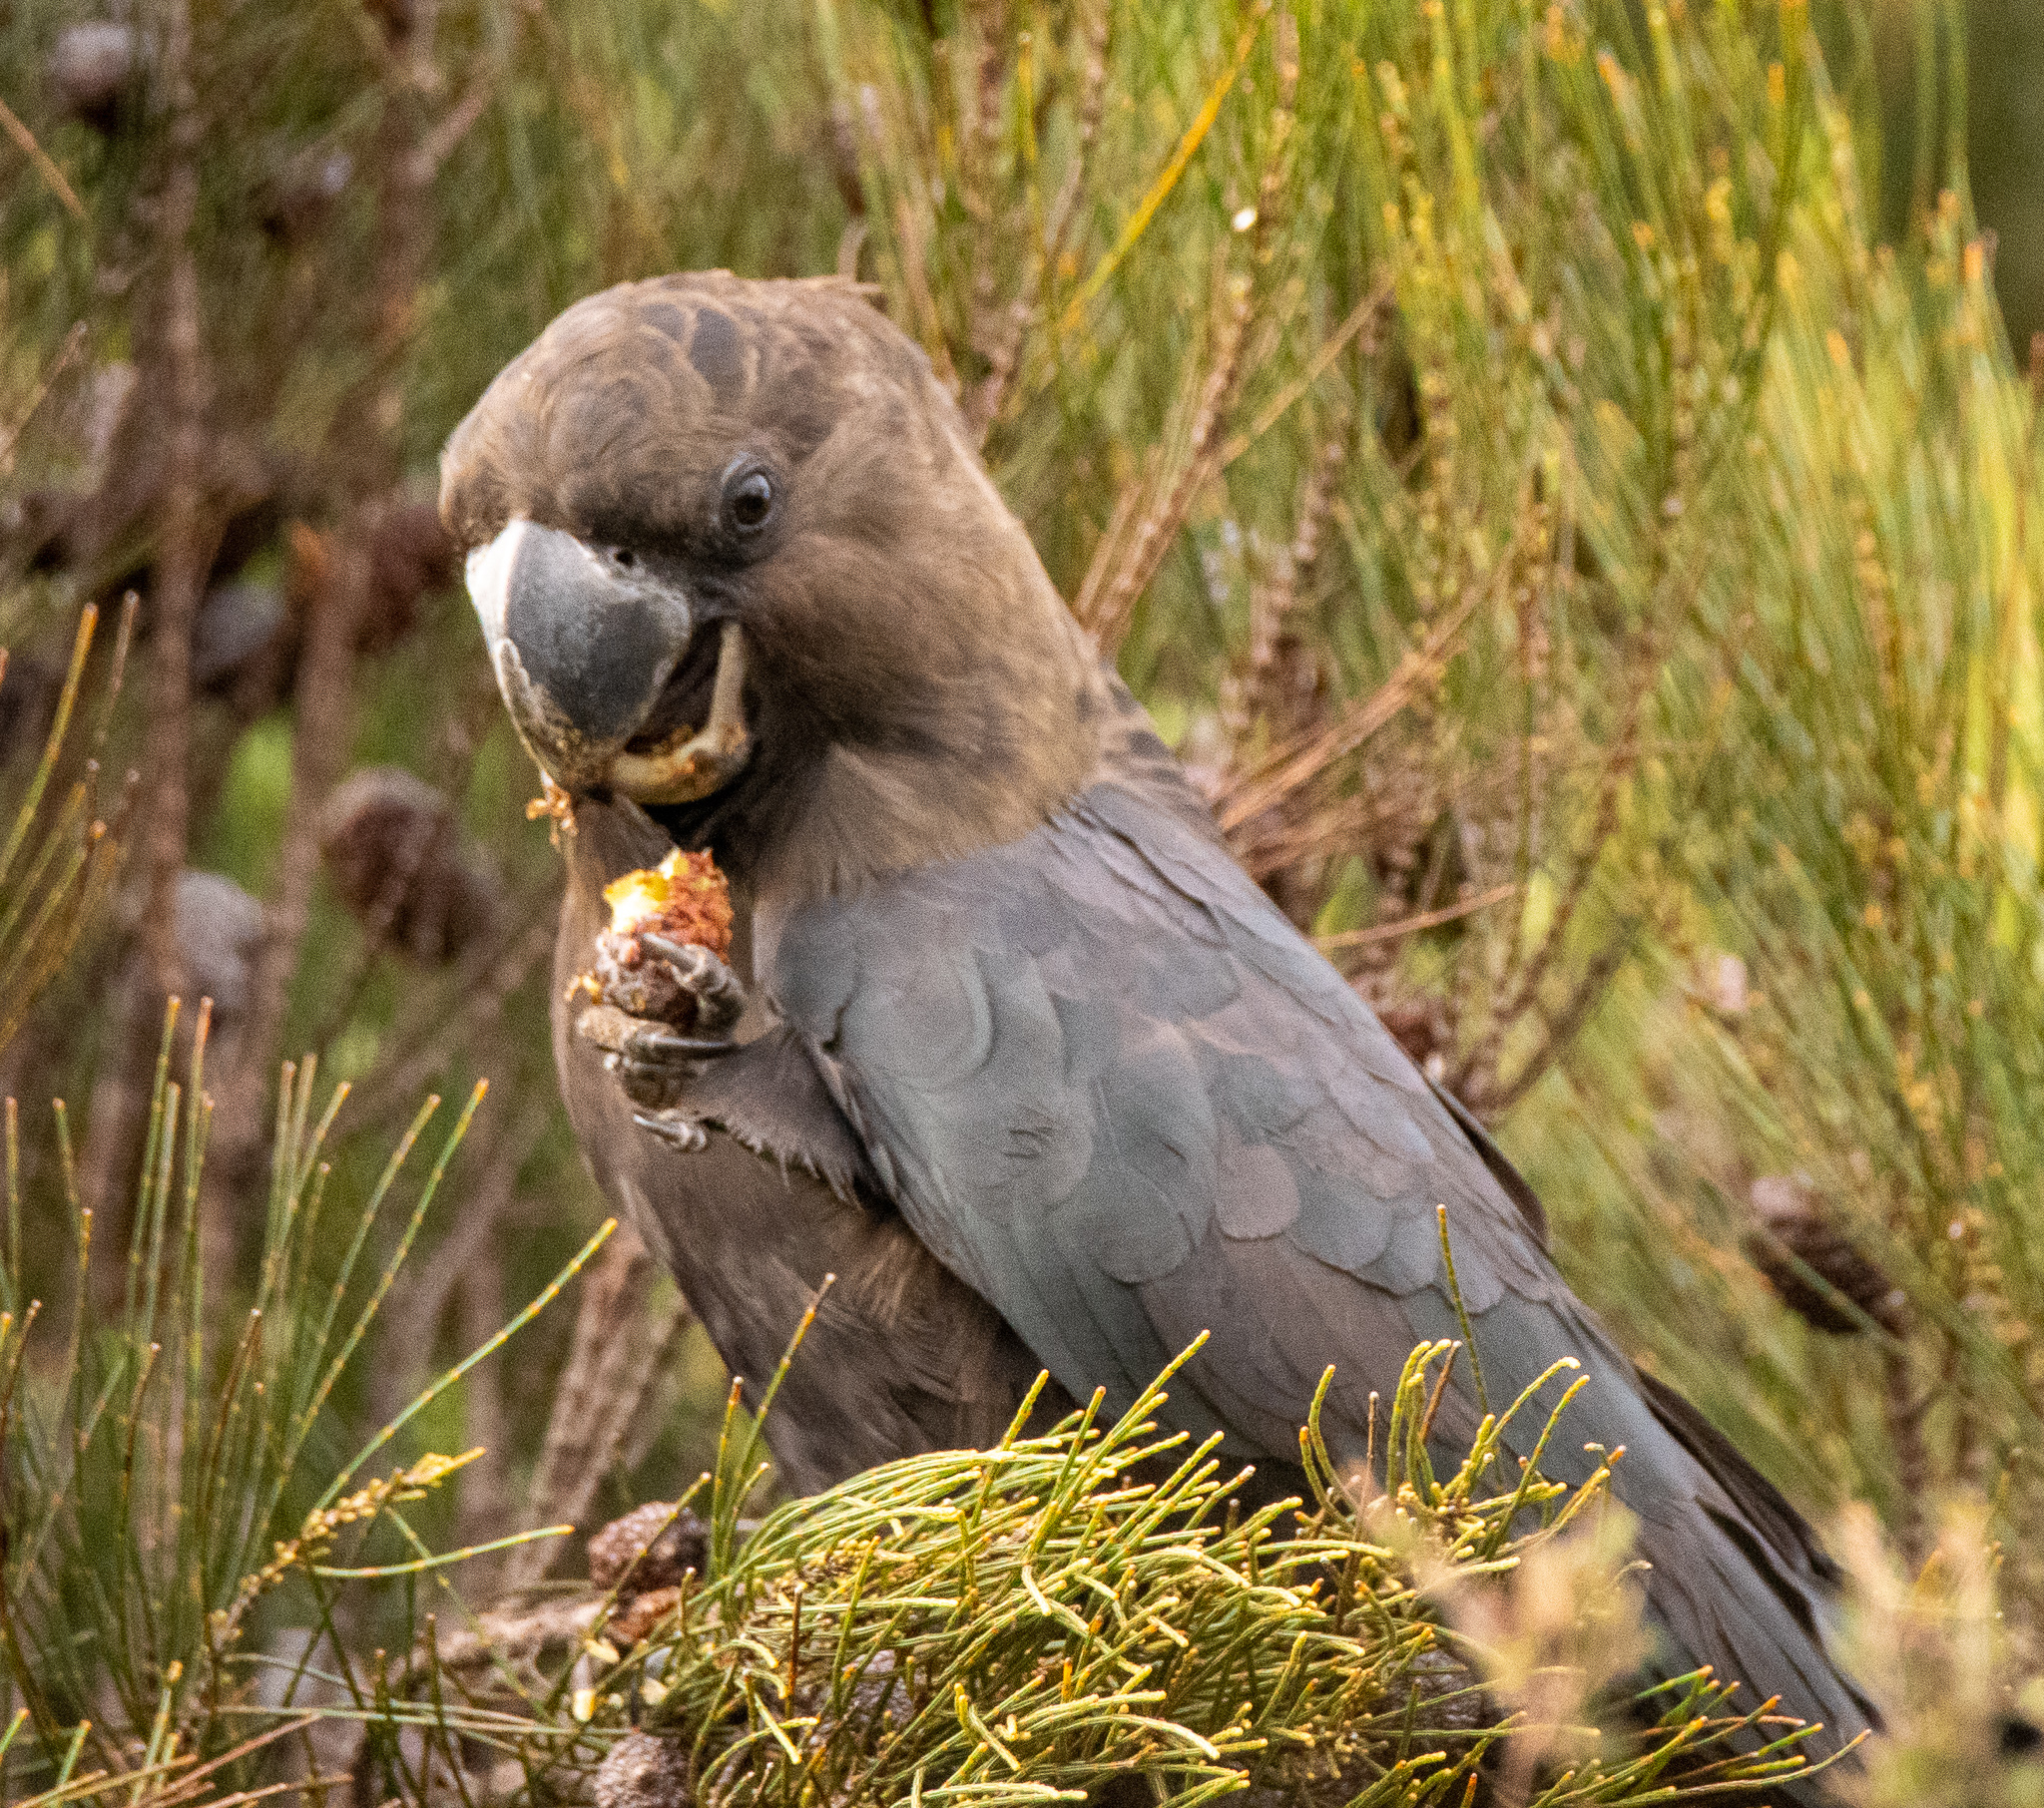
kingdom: Animalia
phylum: Chordata
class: Aves
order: Psittaciformes
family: Psittacidae
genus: Calyptorhynchus
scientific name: Calyptorhynchus lathami
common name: Glossy black cockatoo
